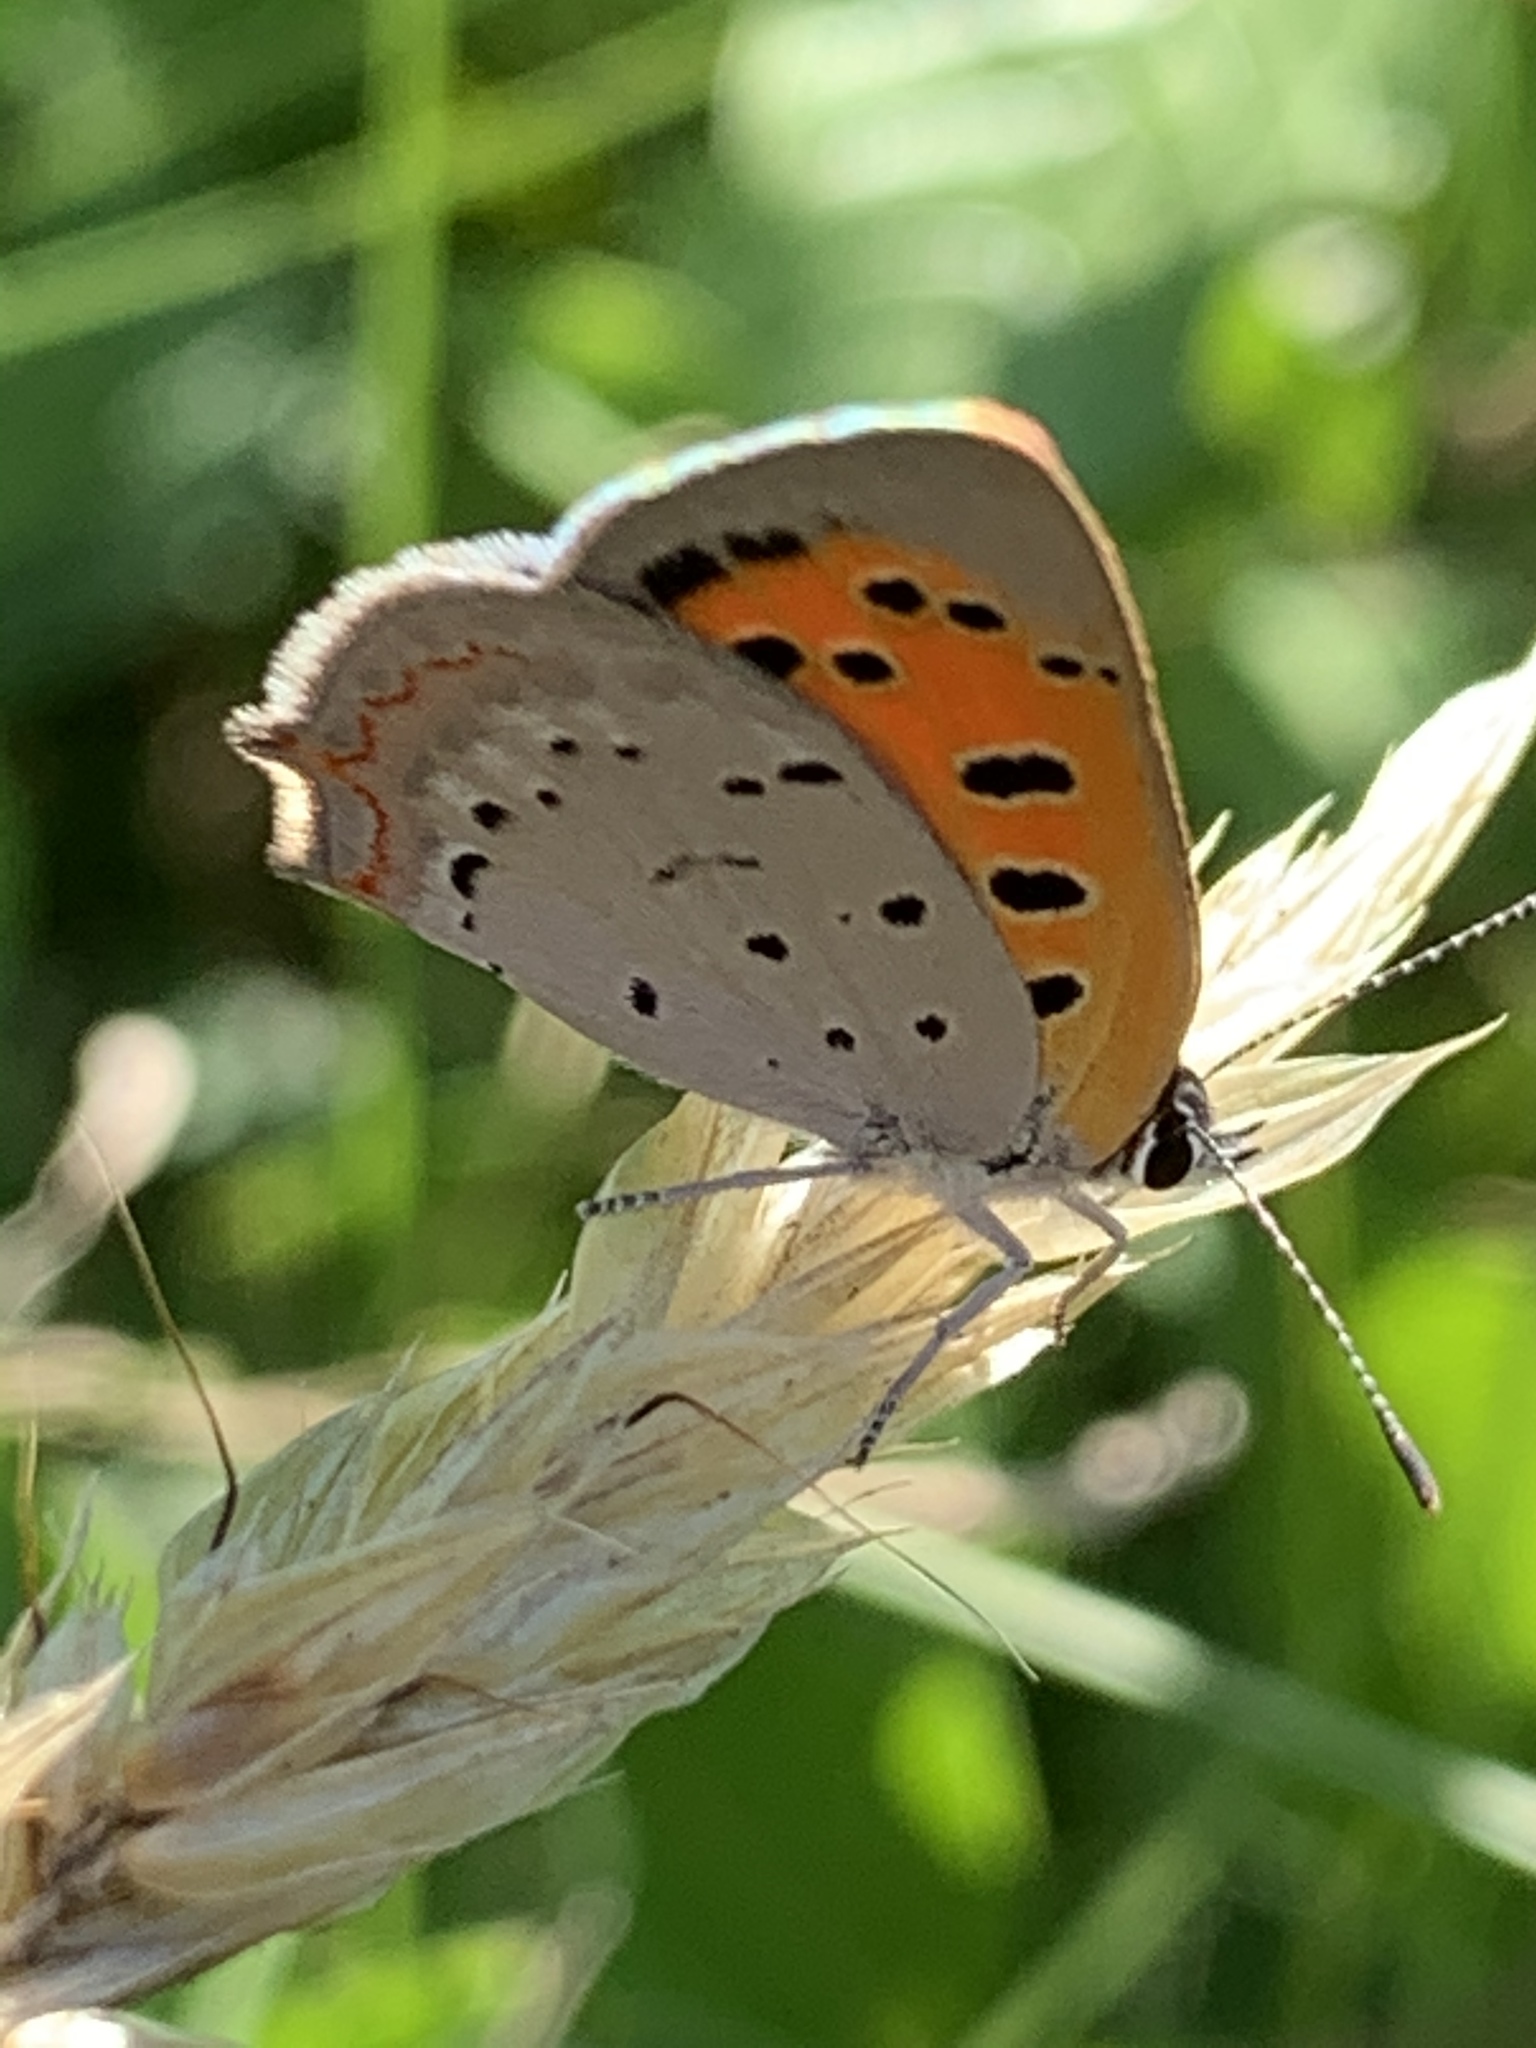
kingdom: Animalia
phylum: Arthropoda
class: Insecta
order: Lepidoptera
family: Lycaenidae
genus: Lycaena
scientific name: Lycaena hypophlaeas
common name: American copper
